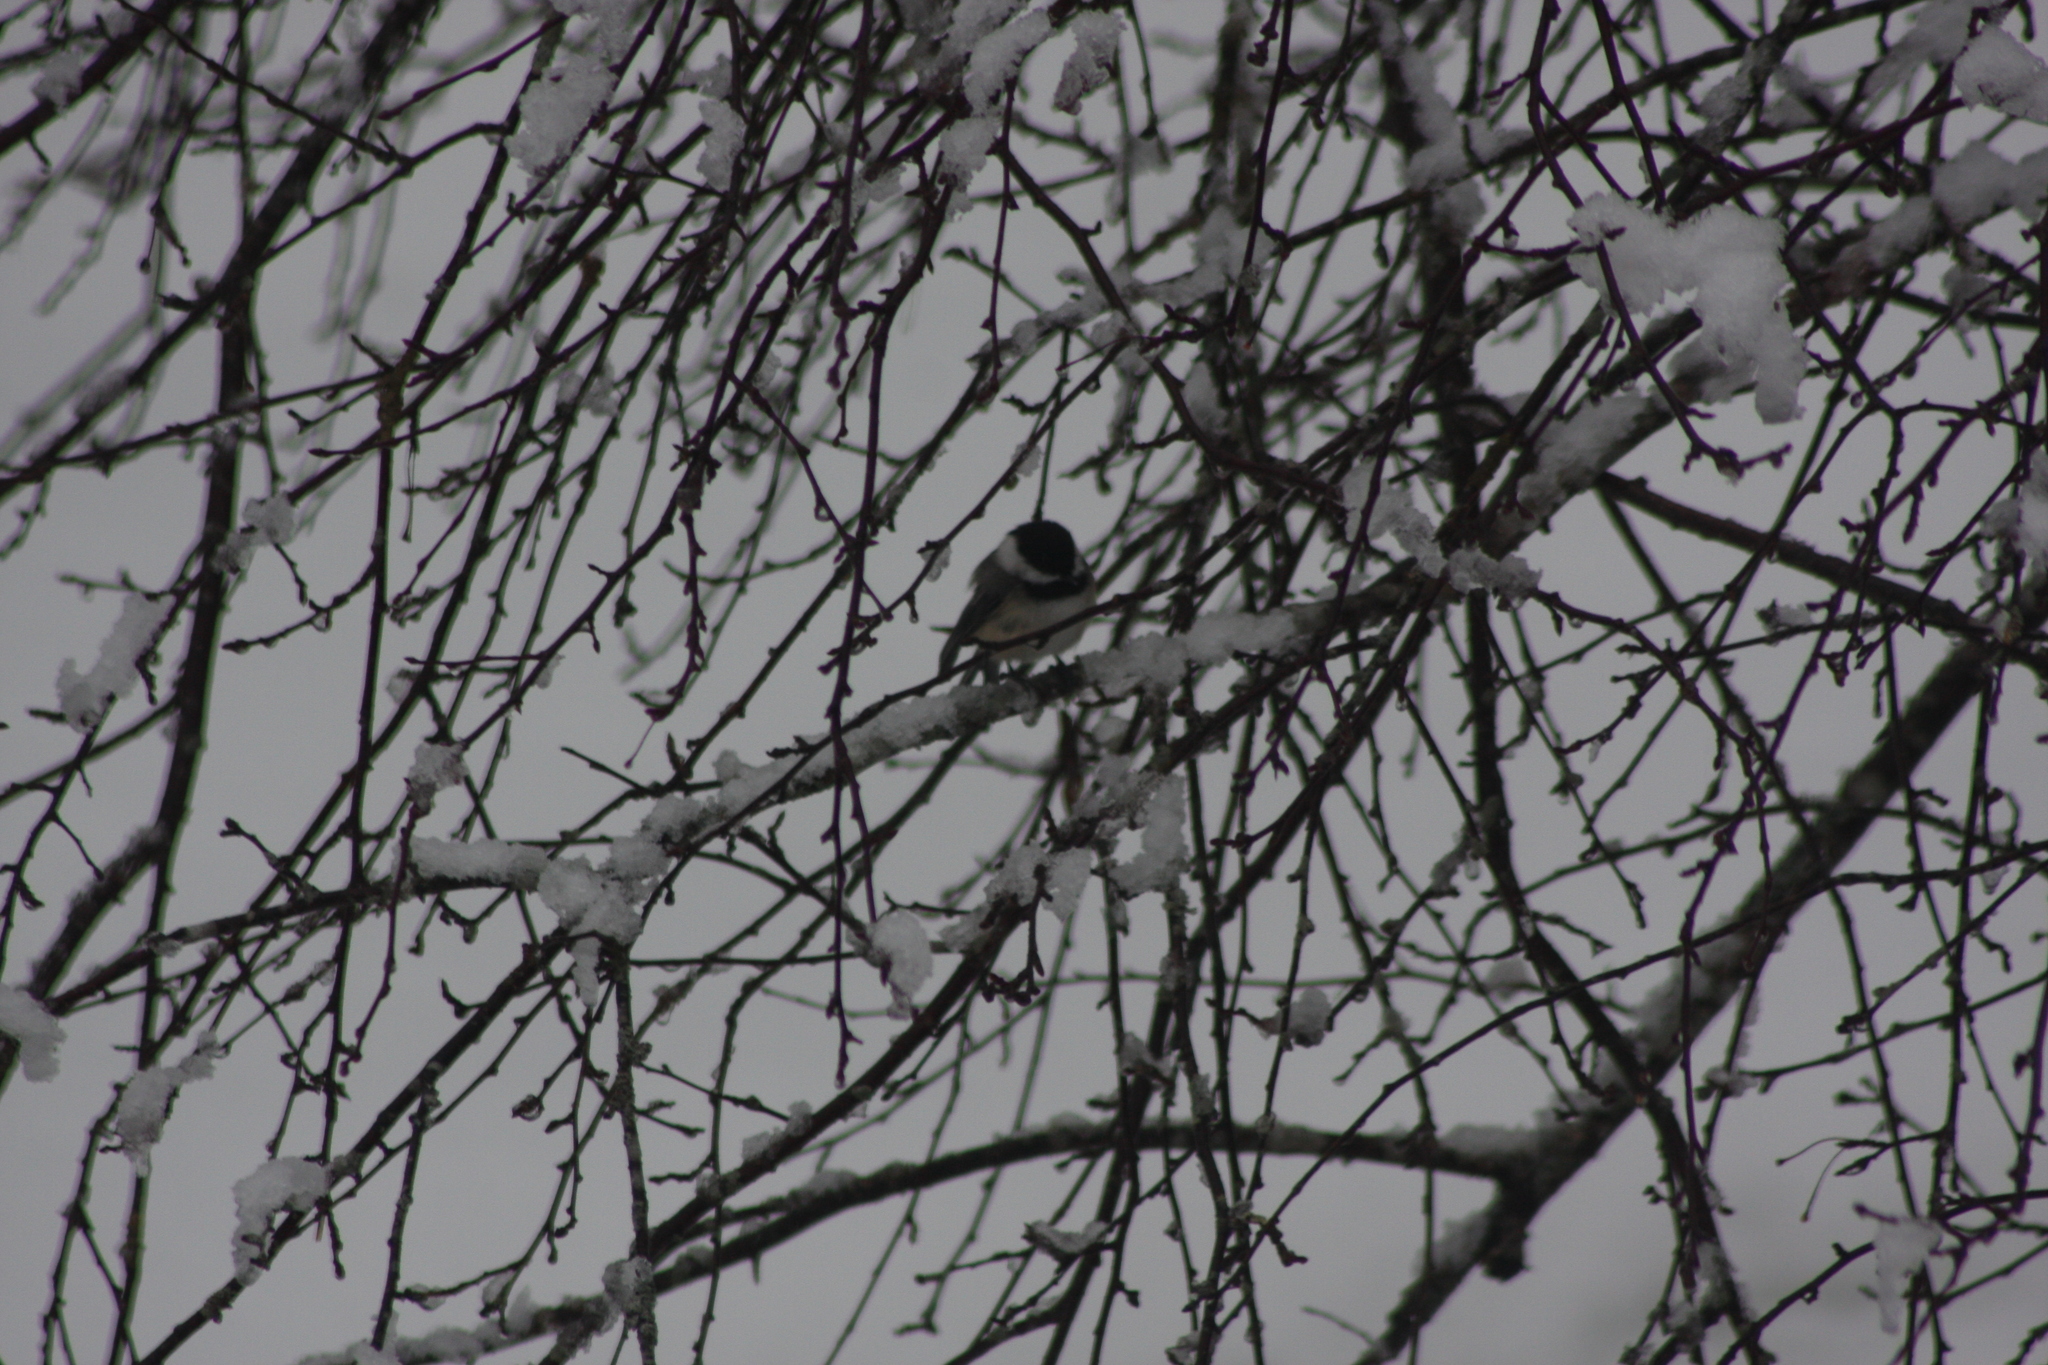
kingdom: Animalia
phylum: Chordata
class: Aves
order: Passeriformes
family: Paridae
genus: Poecile
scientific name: Poecile atricapillus
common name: Black-capped chickadee
